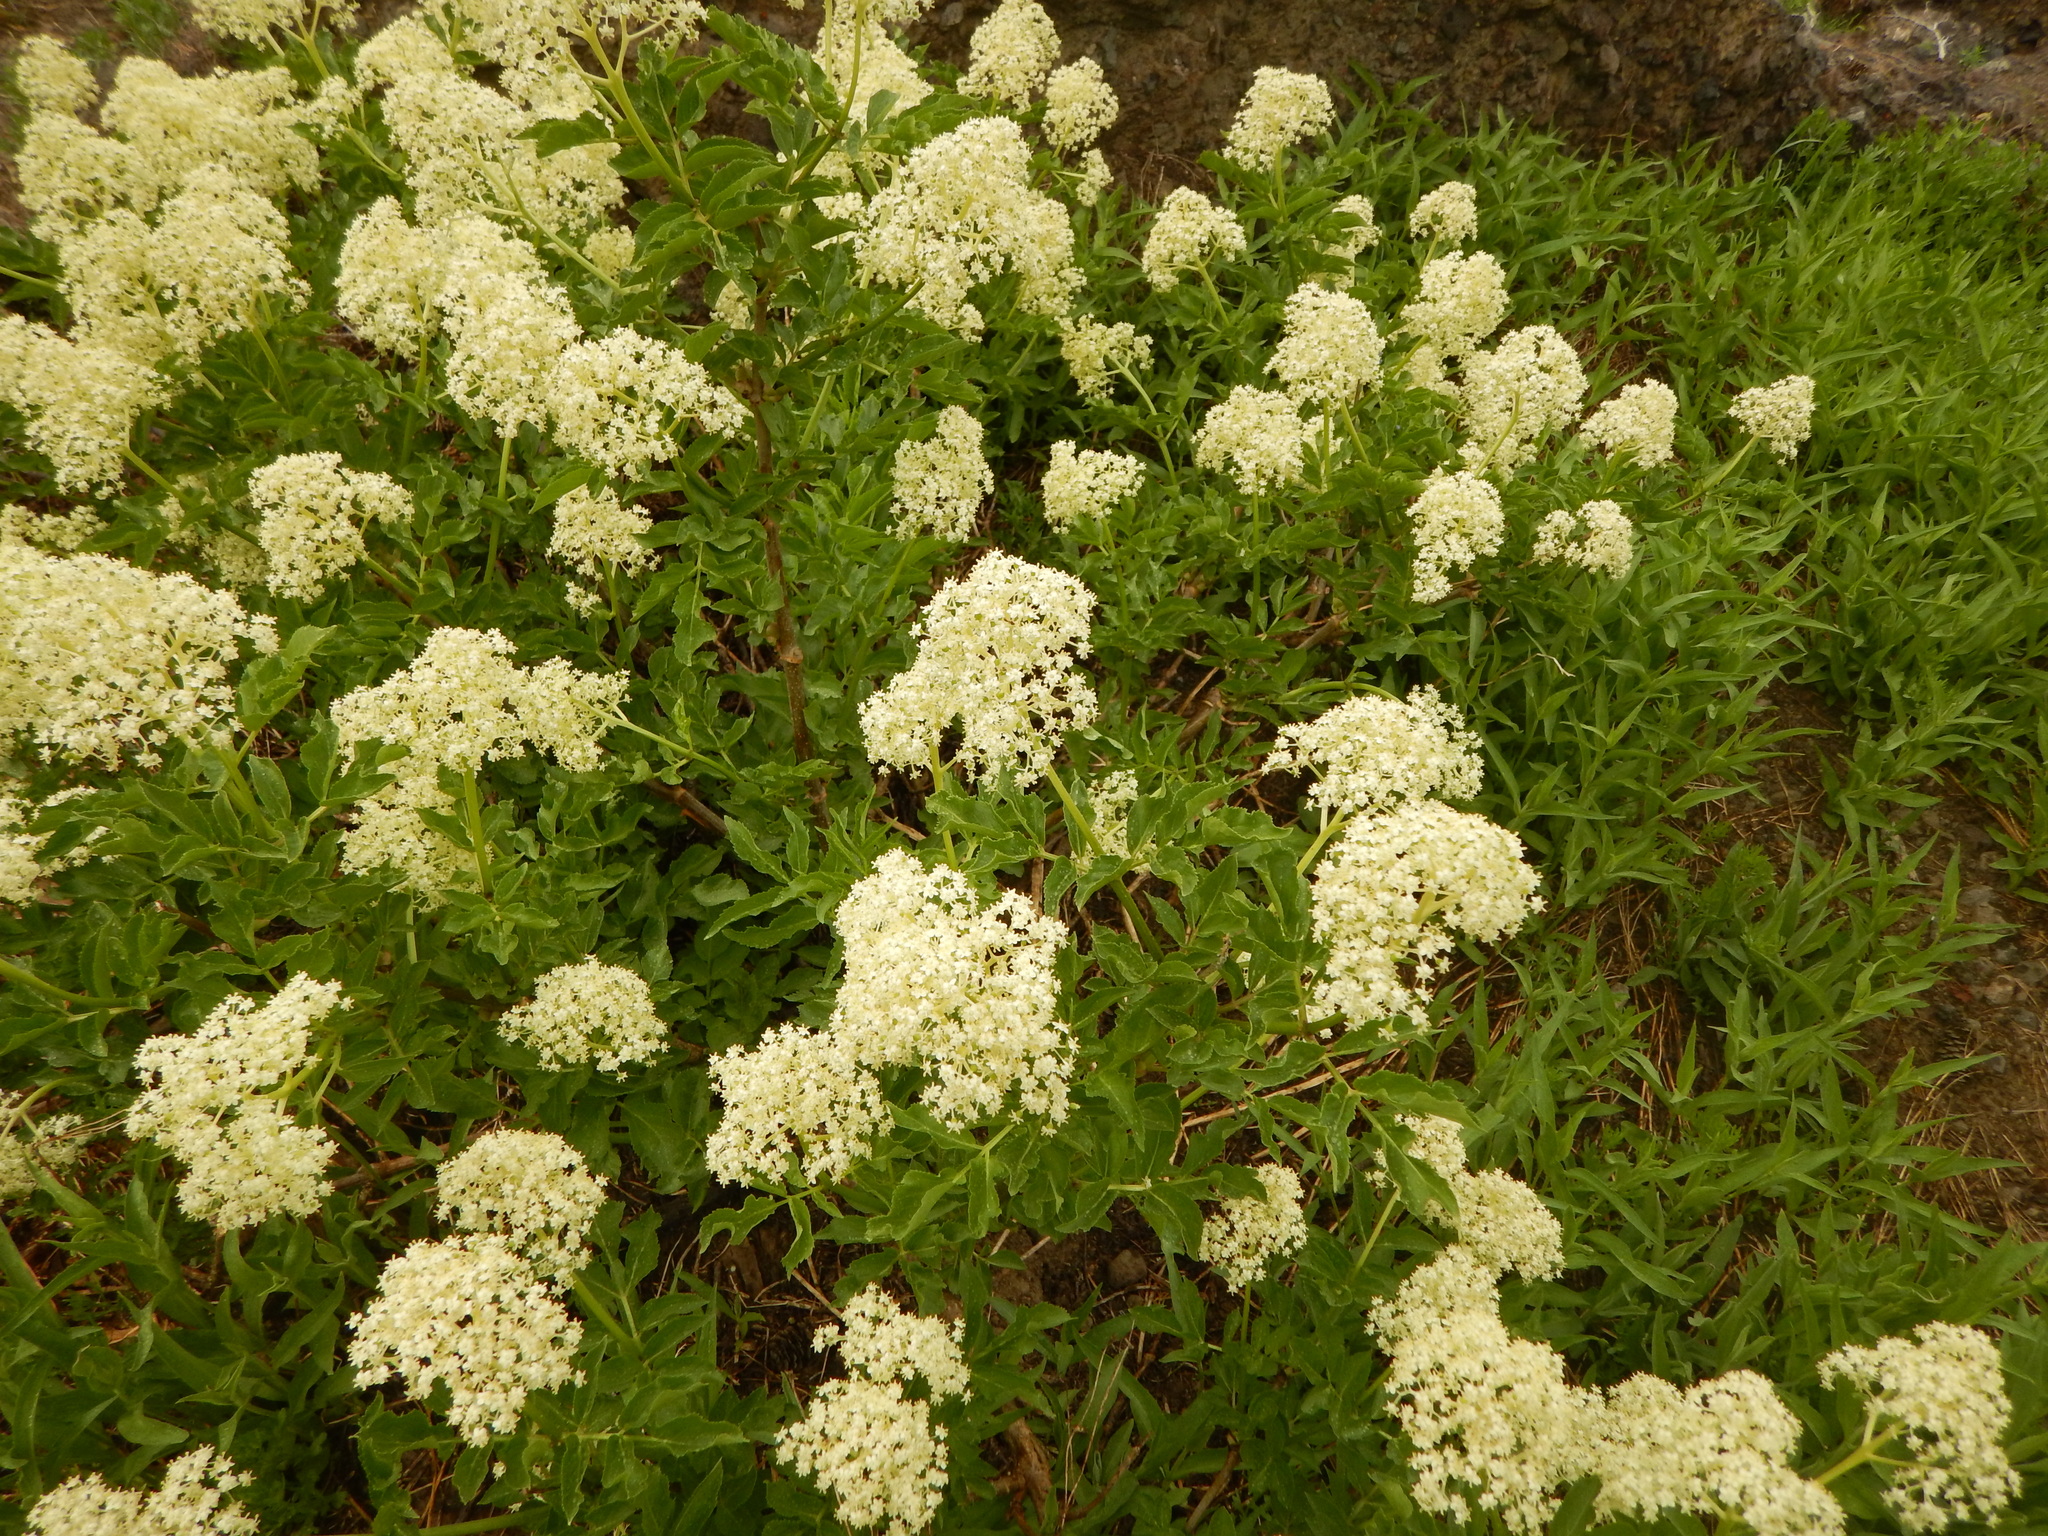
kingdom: Plantae
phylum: Tracheophyta
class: Magnoliopsida
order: Dipsacales
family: Viburnaceae
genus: Sambucus
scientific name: Sambucus racemosa
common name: Red-berried elder
